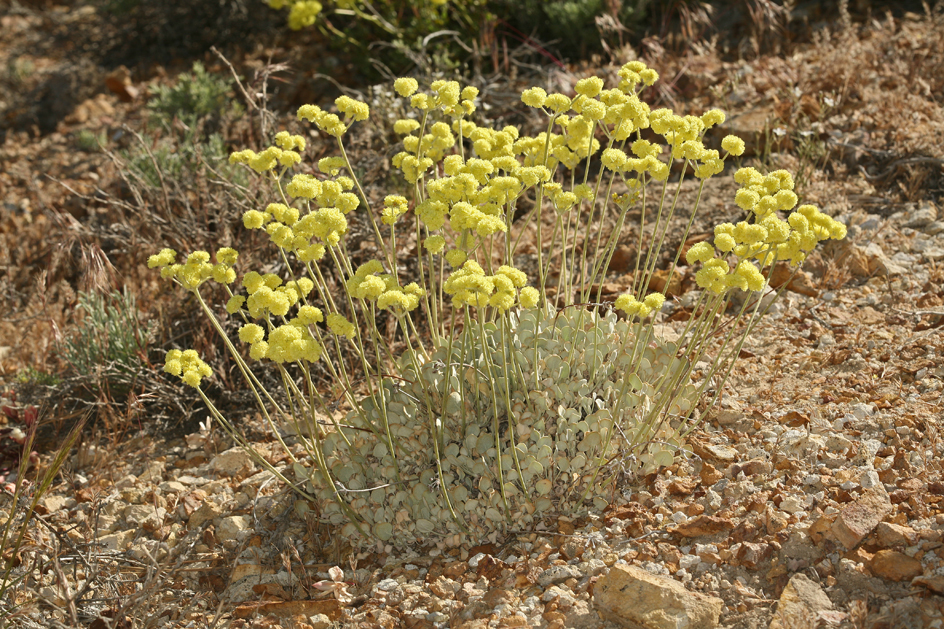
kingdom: Plantae
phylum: Tracheophyta
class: Magnoliopsida
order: Caryophyllales
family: Polygonaceae
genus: Eriogonum
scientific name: Eriogonum strictum
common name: Blue mountain buckwheat
